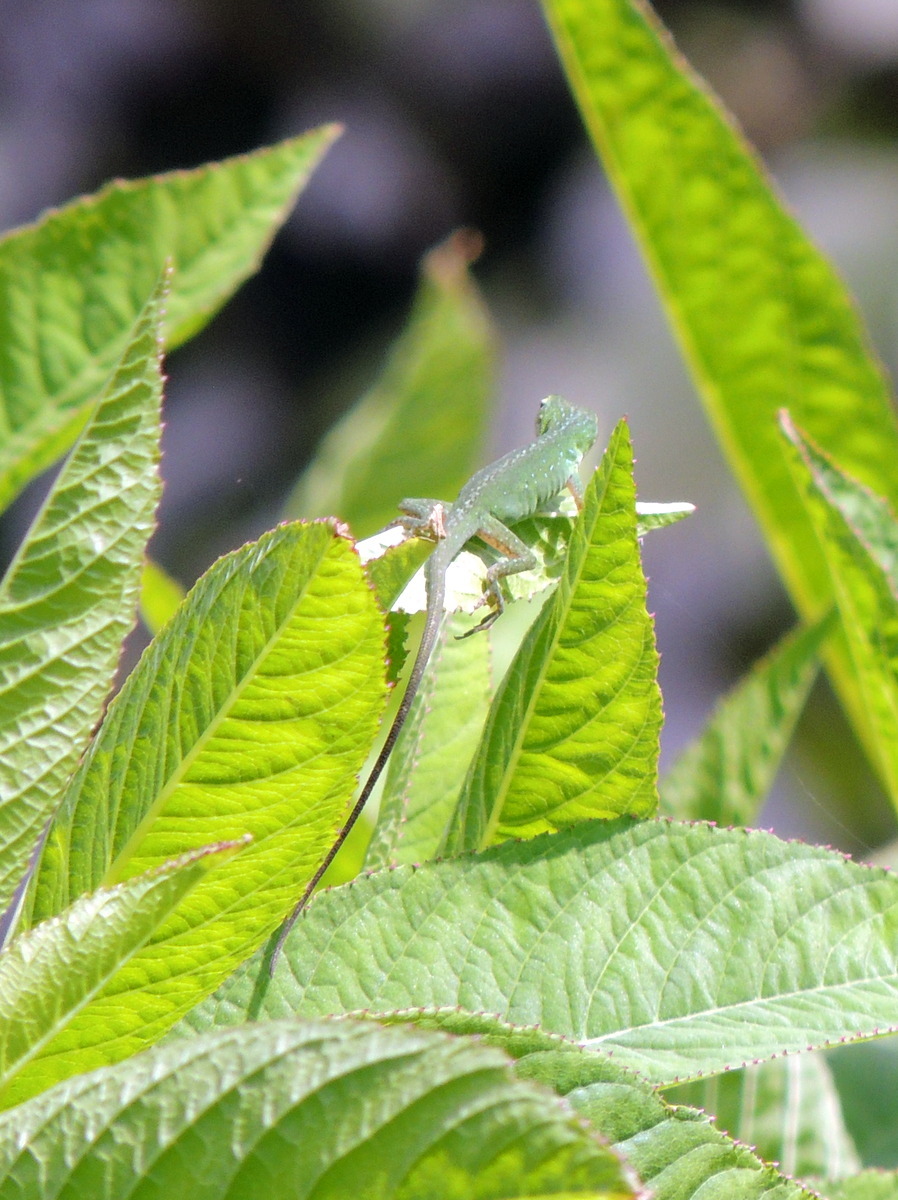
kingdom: Animalia
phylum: Chordata
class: Squamata
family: Dactyloidae
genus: Anolis
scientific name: Anolis carolinensis
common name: Green anole
